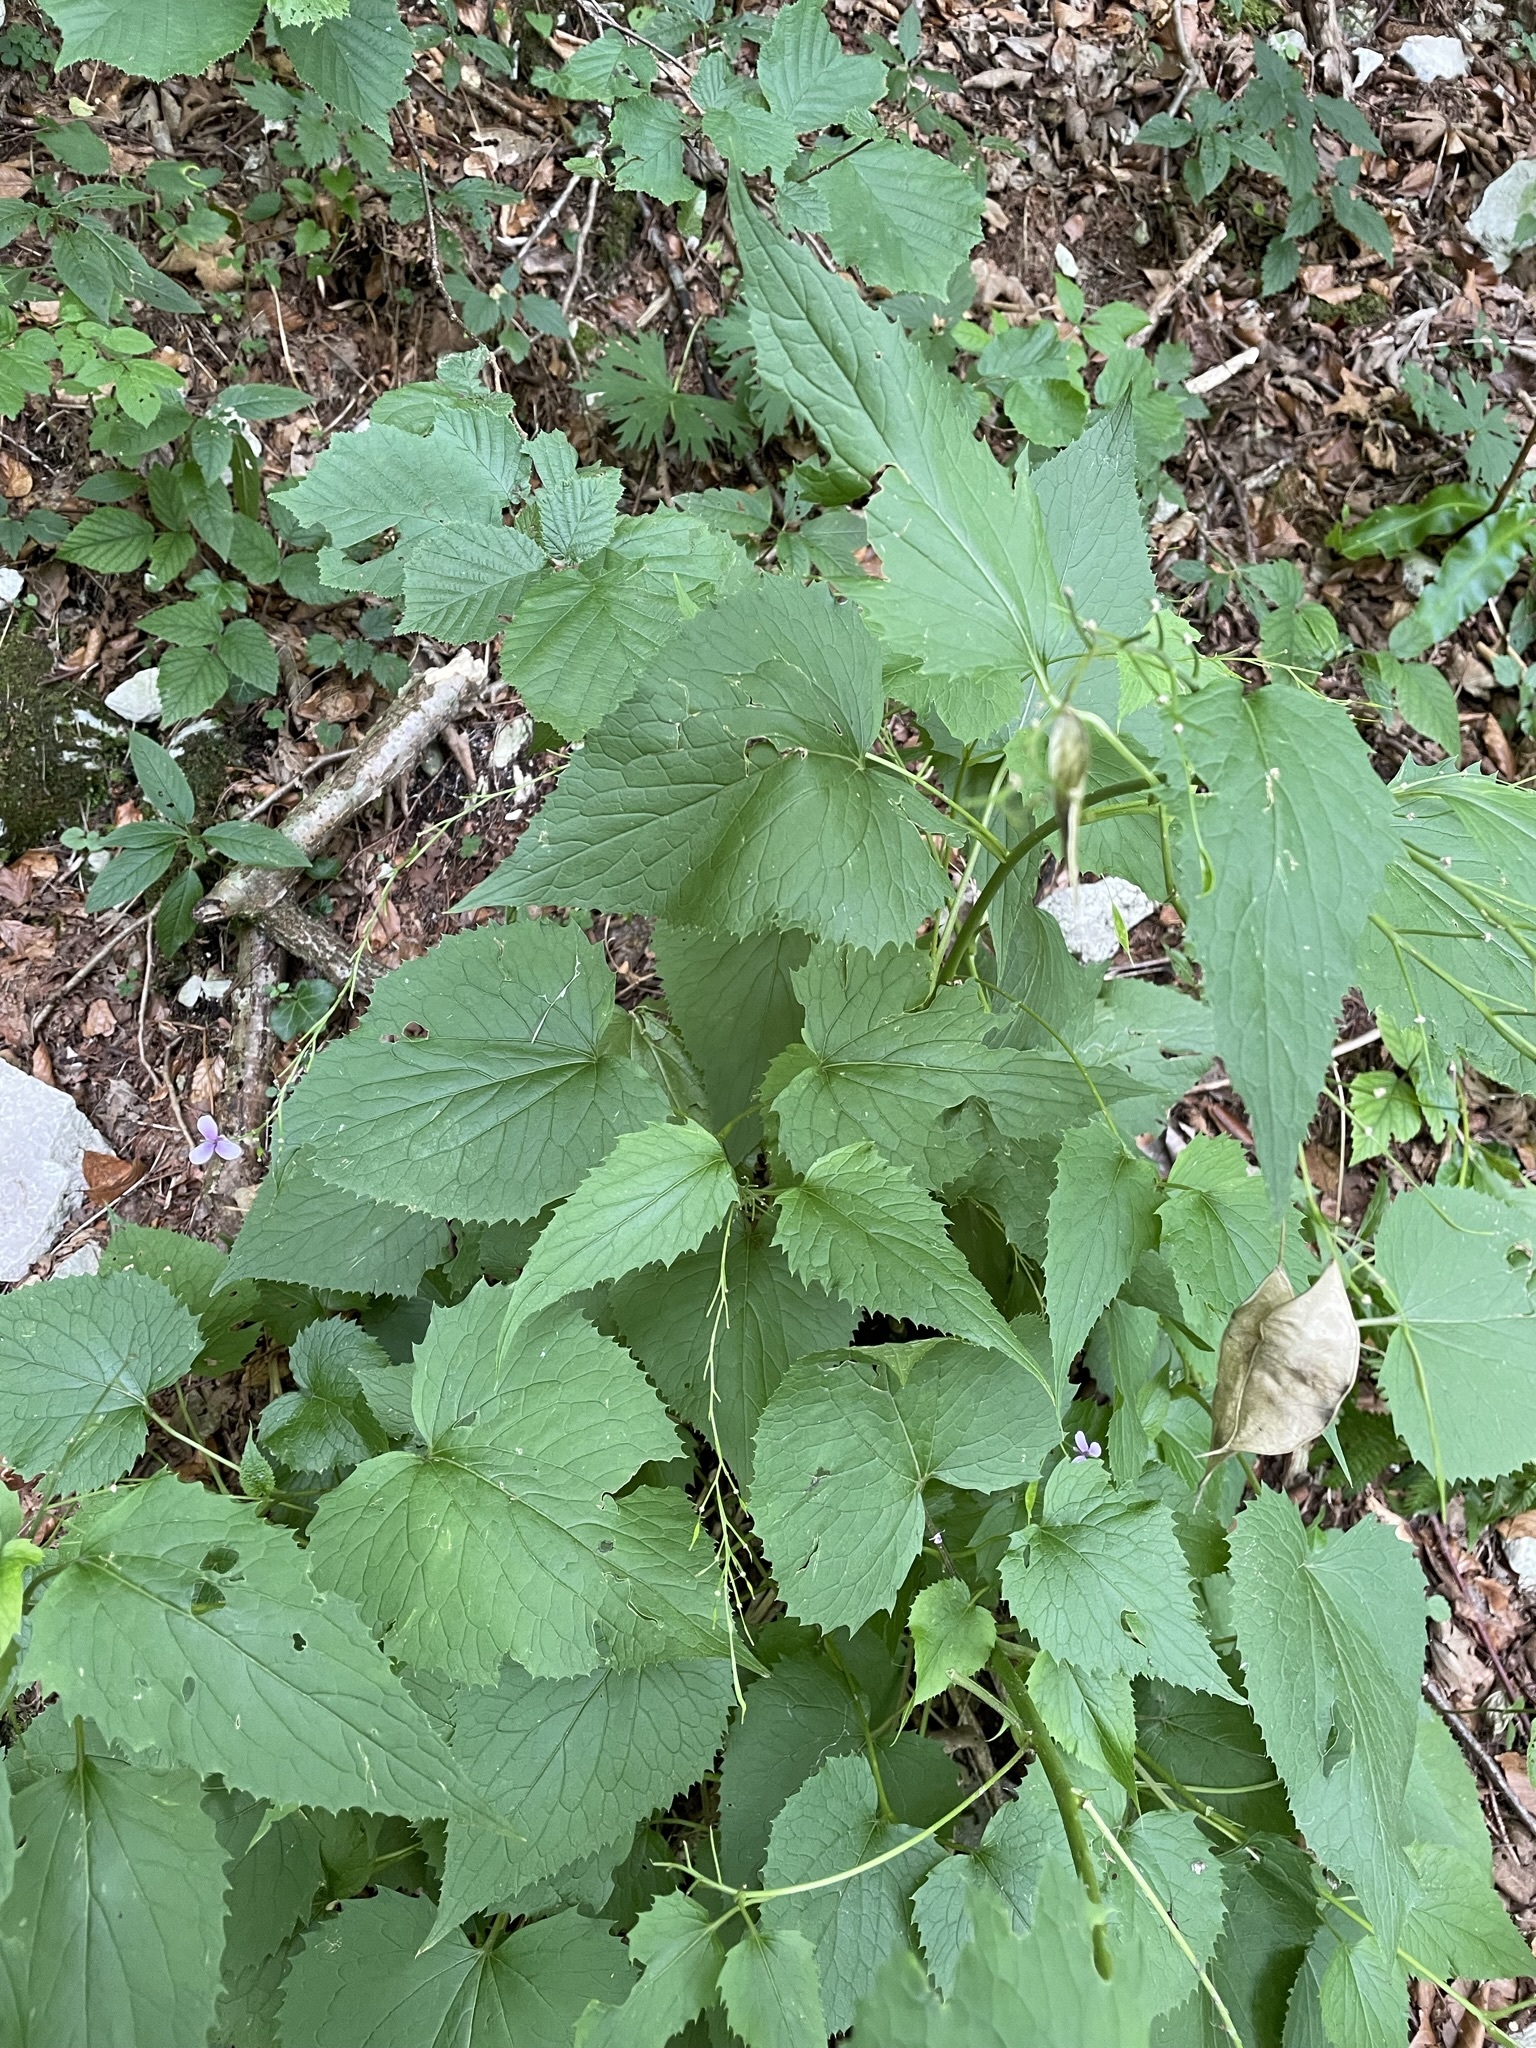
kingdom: Plantae
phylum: Tracheophyta
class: Magnoliopsida
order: Brassicales
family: Brassicaceae
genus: Lunaria
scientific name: Lunaria rediviva
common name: Perennial honesty
